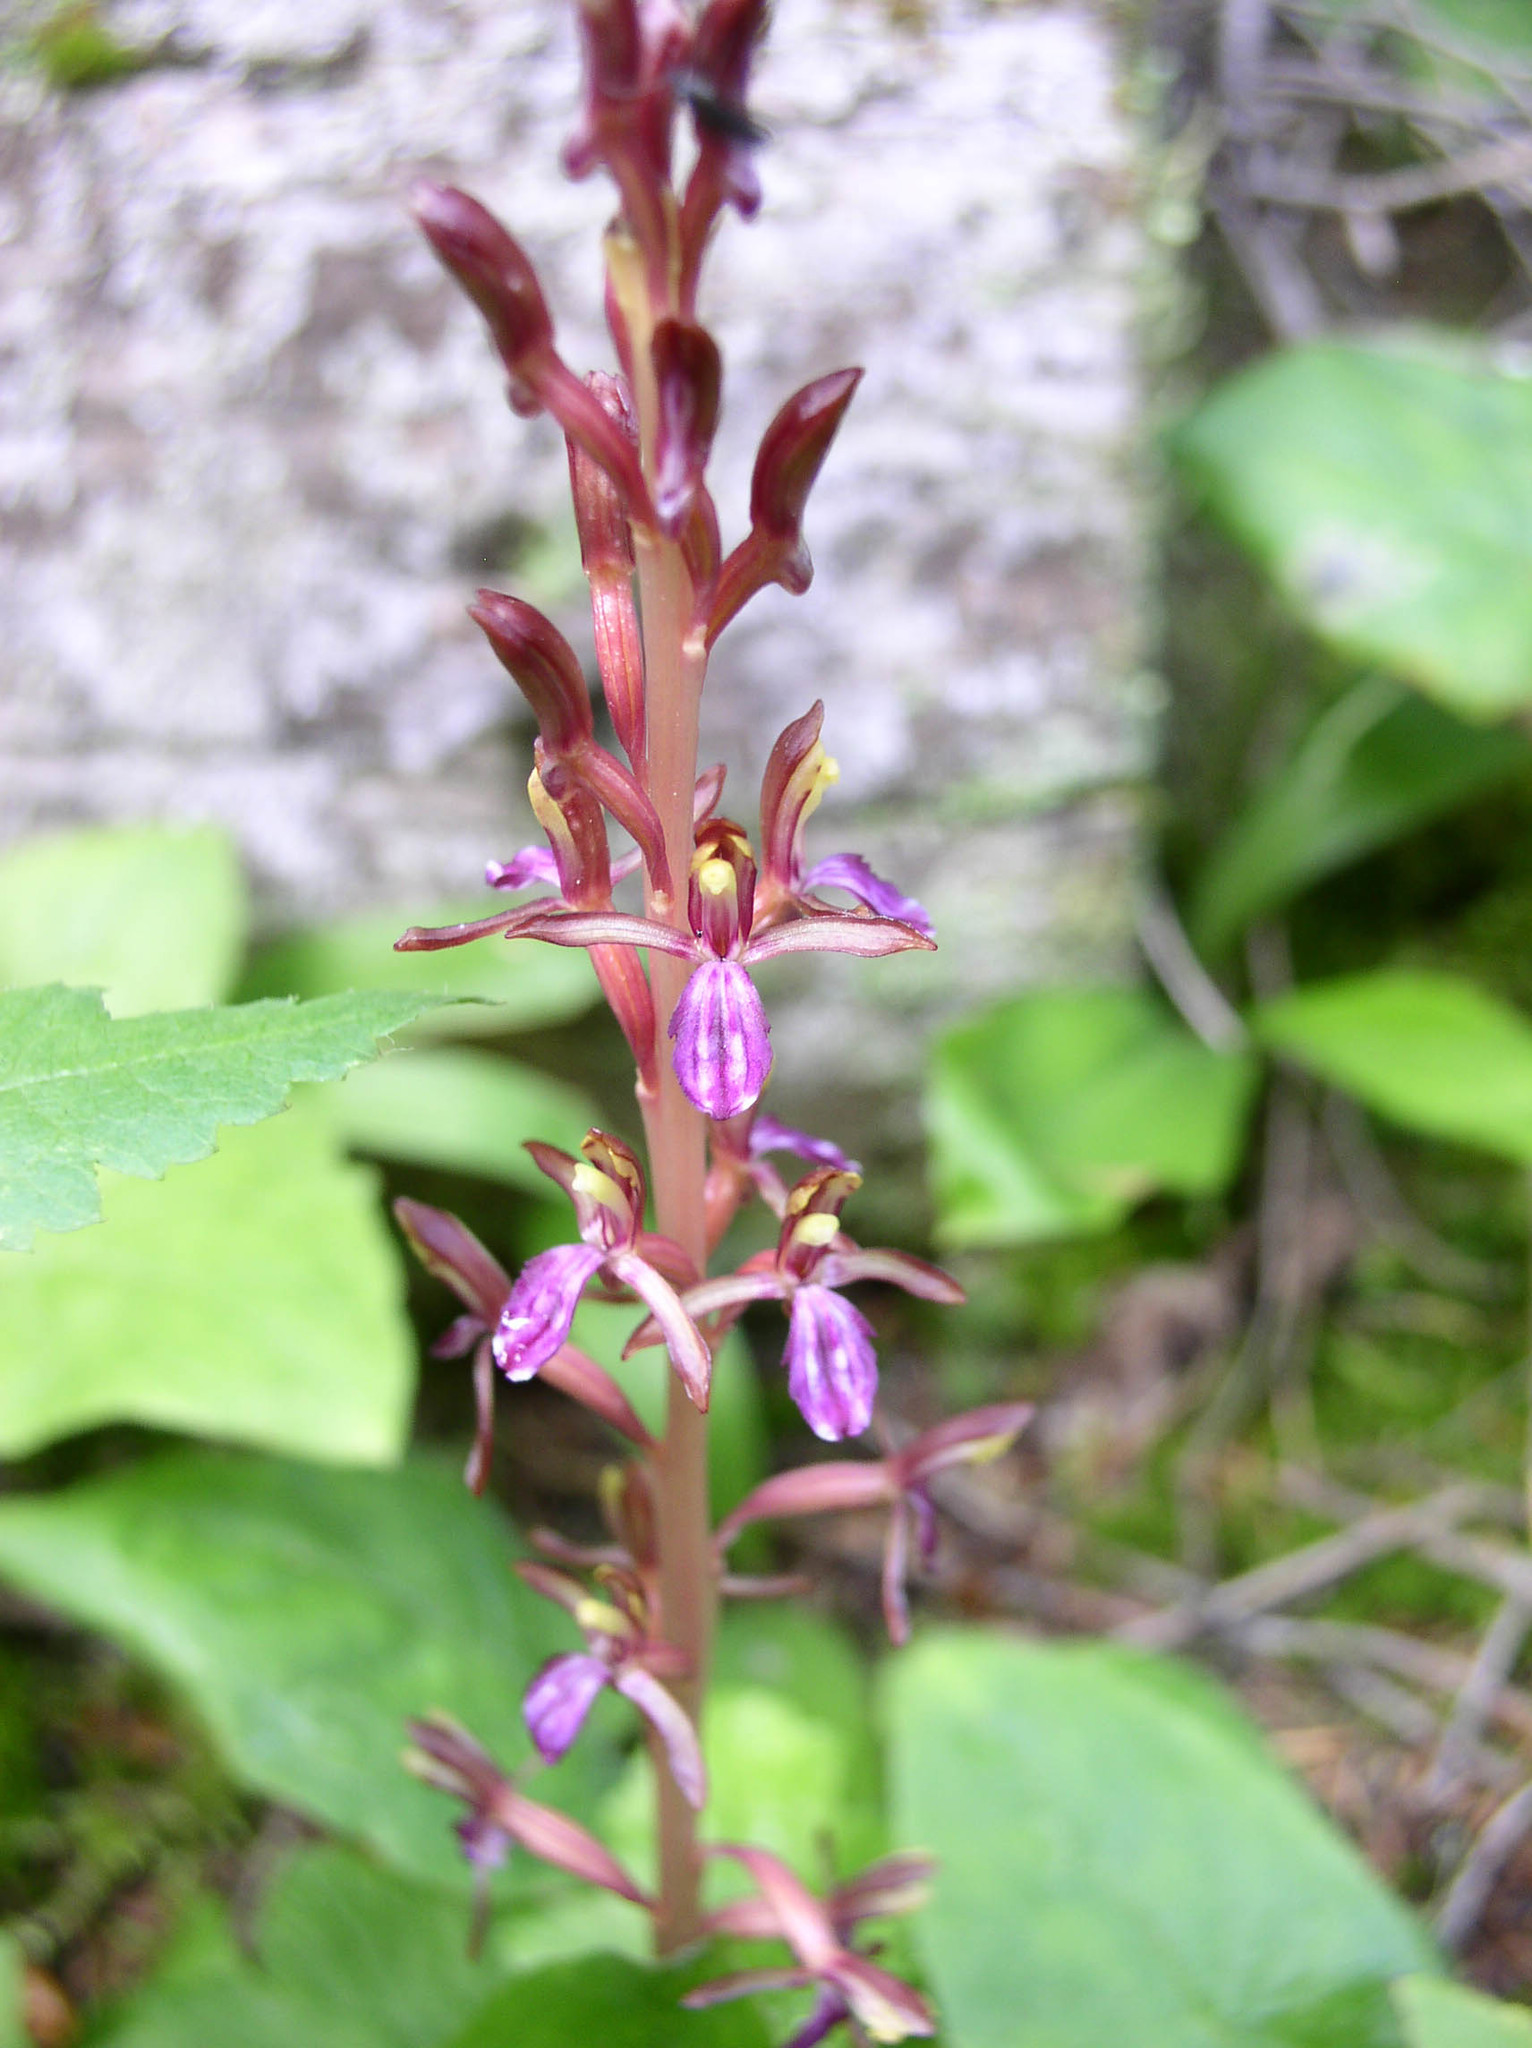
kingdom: Plantae
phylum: Tracheophyta
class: Liliopsida
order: Asparagales
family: Orchidaceae
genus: Corallorhiza
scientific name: Corallorhiza mertensiana
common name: Pacific coralroot
